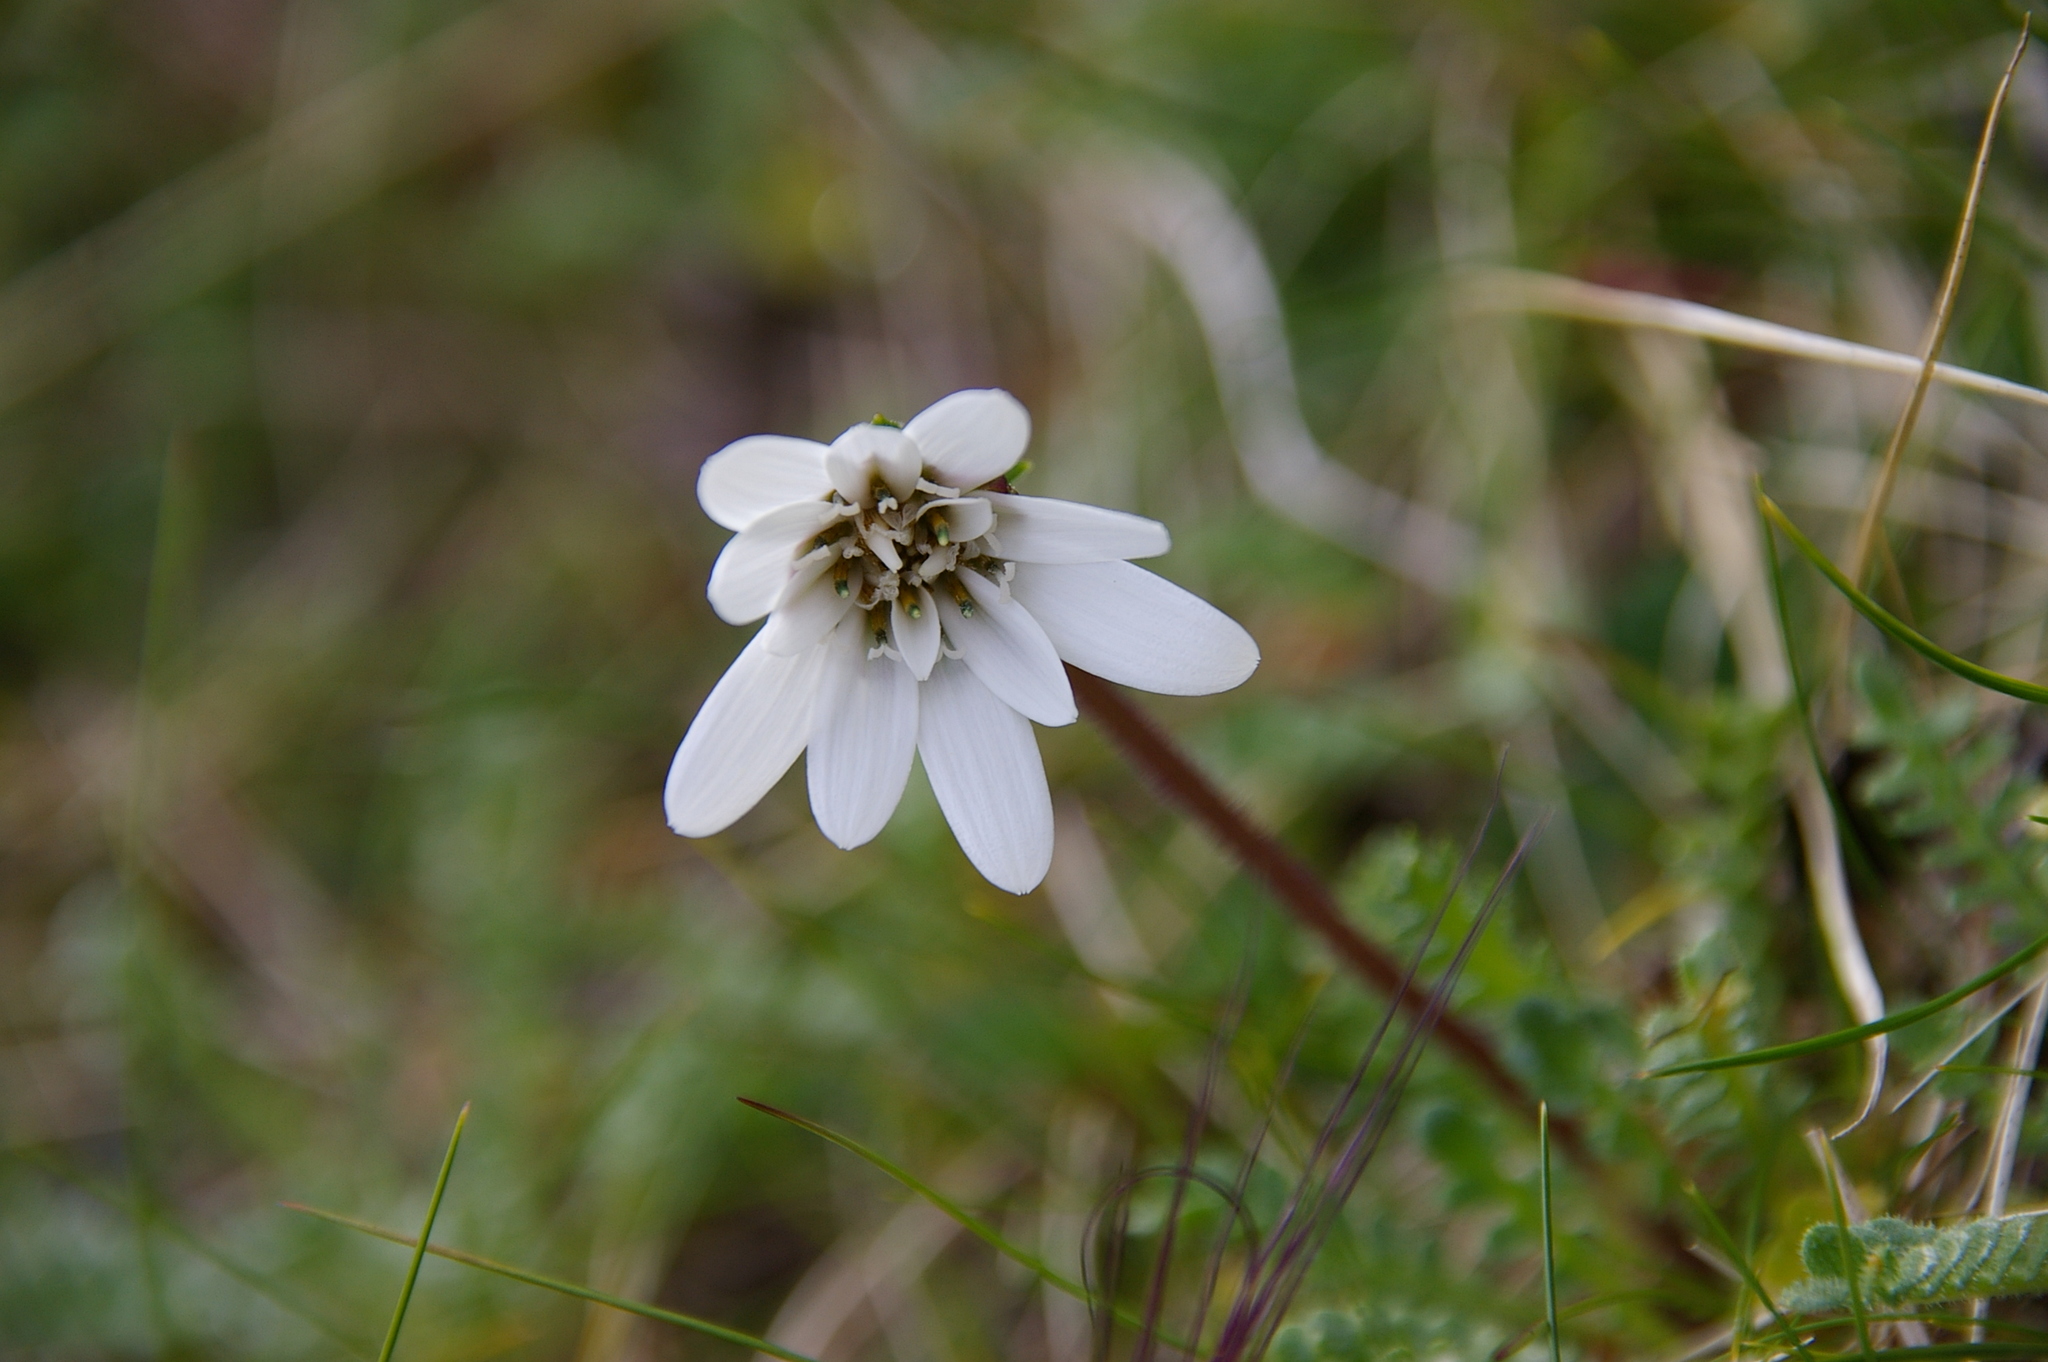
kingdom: Plantae
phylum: Tracheophyta
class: Magnoliopsida
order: Asterales
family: Asteraceae
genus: Perezia
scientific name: Perezia magellanica
